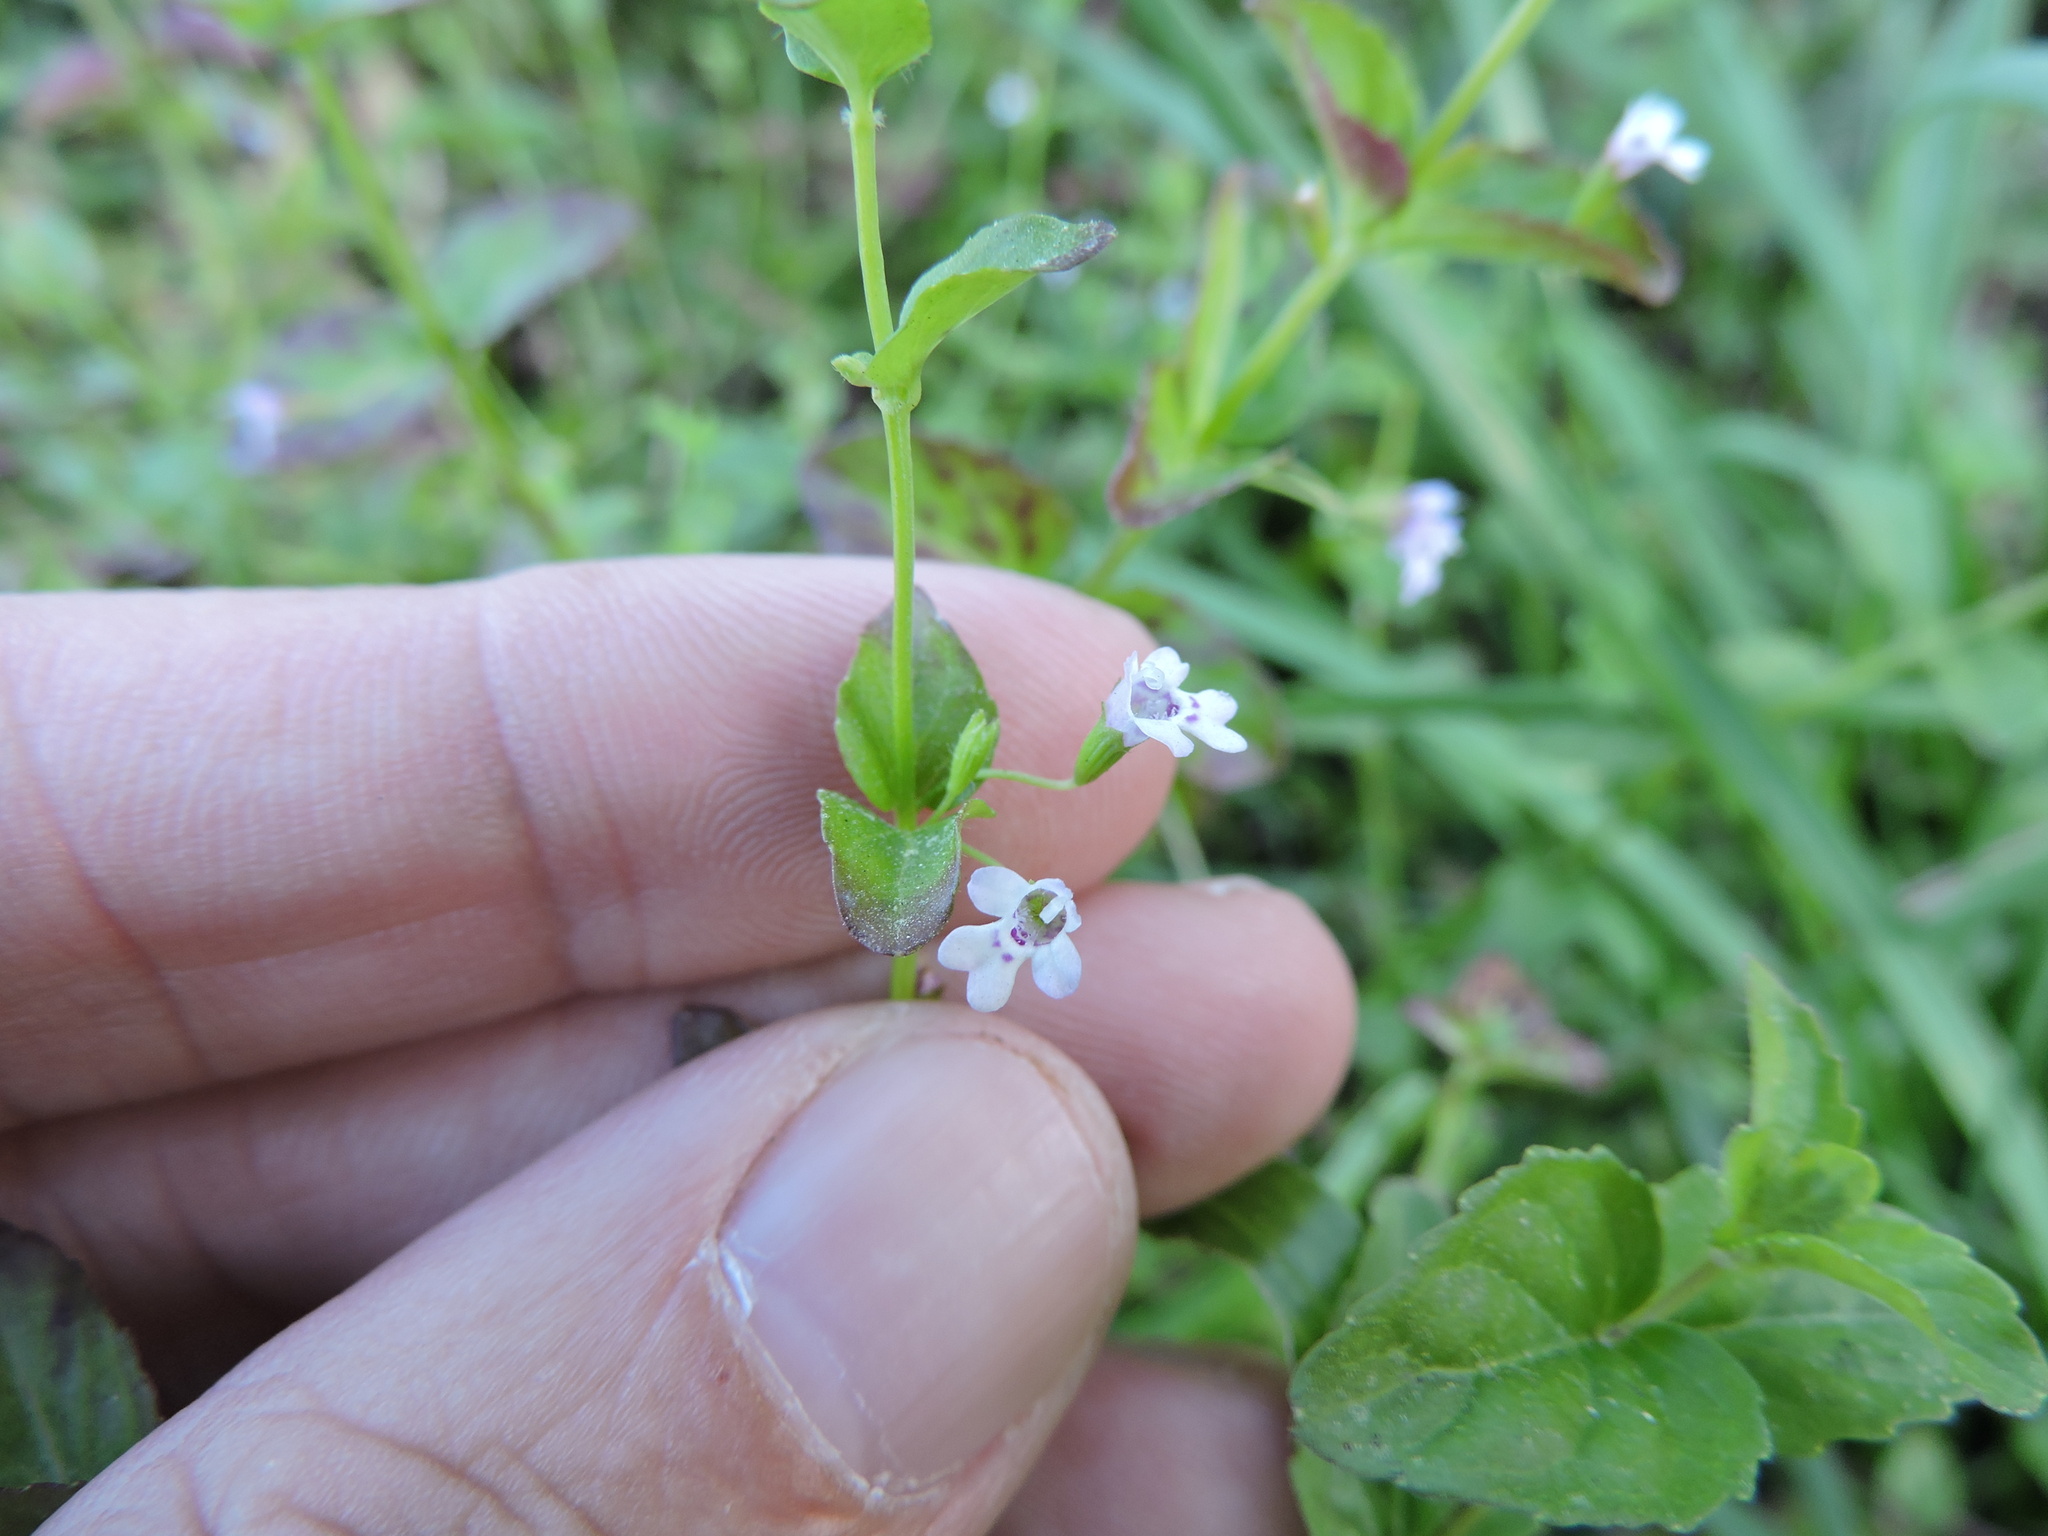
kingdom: Plantae
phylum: Tracheophyta
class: Magnoliopsida
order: Lamiales
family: Lamiaceae
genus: Clinopodium
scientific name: Clinopodium brownei
